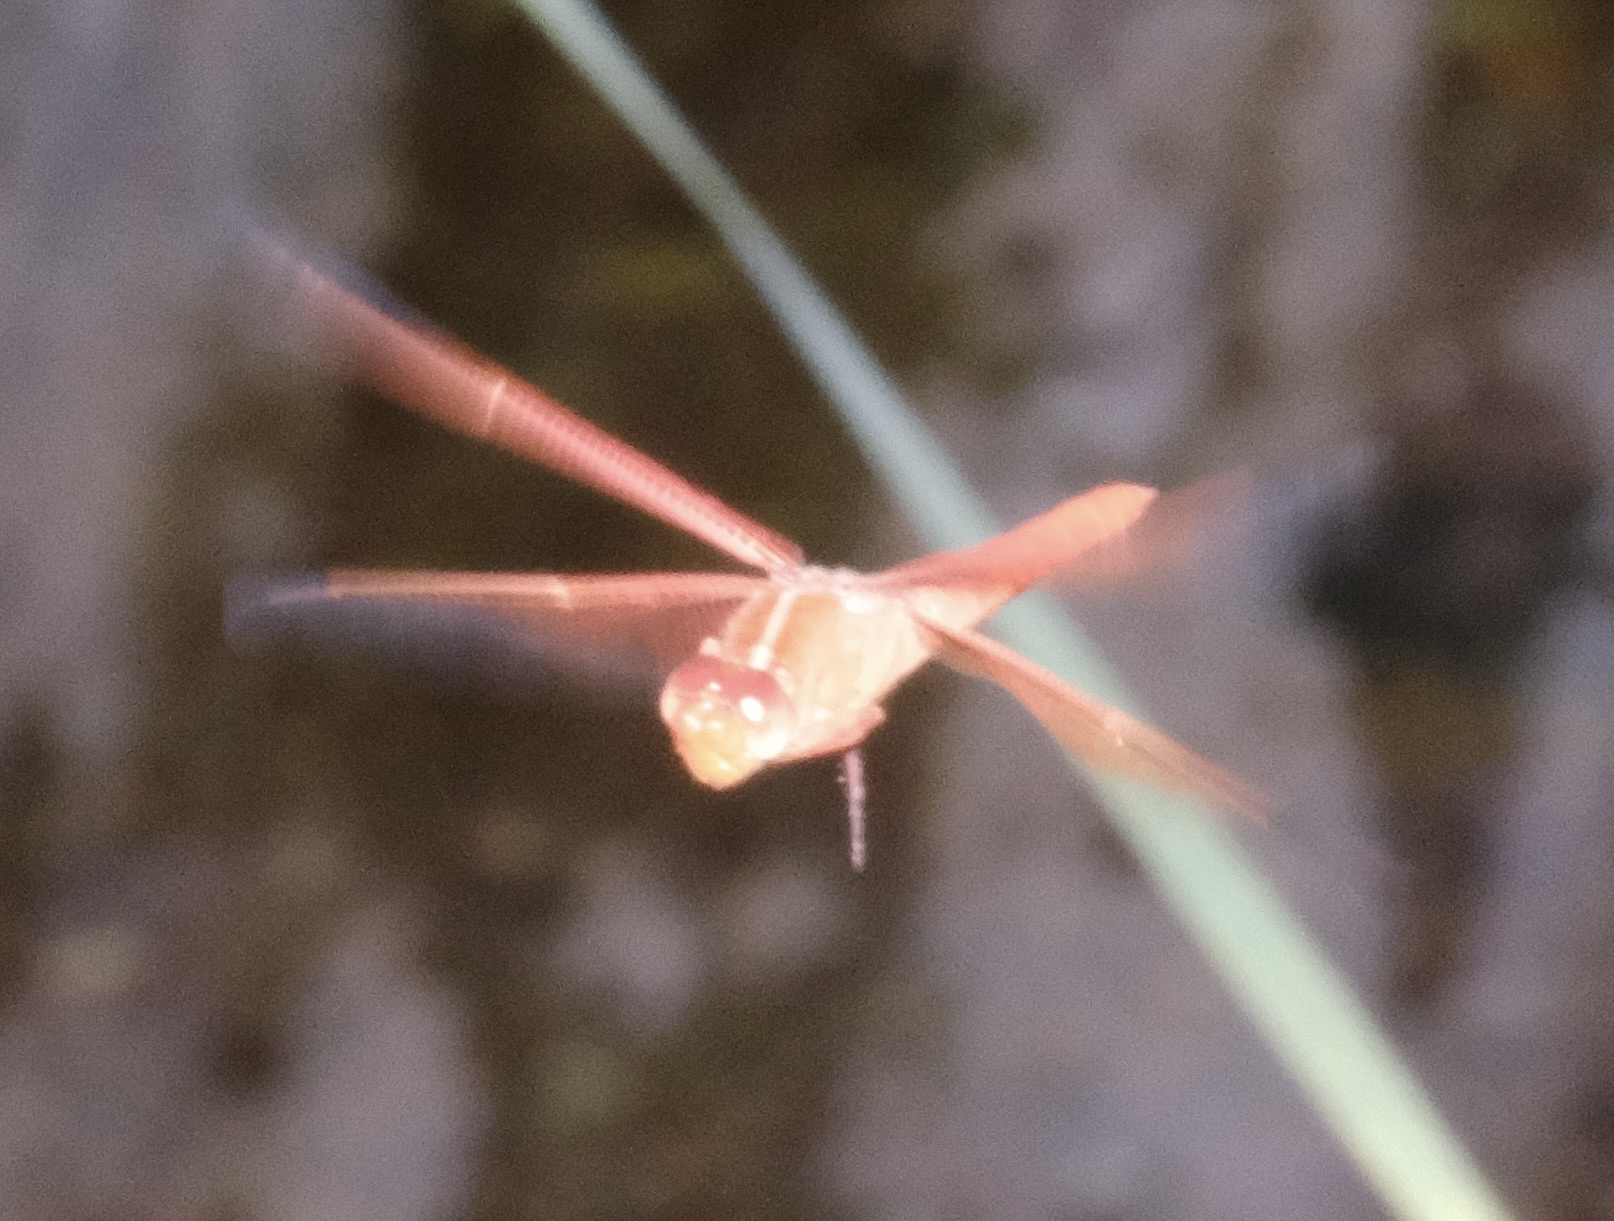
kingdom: Animalia
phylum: Arthropoda
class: Insecta
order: Odonata
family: Libellulidae
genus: Libellula
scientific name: Libellula saturata
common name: Flame skimmer
